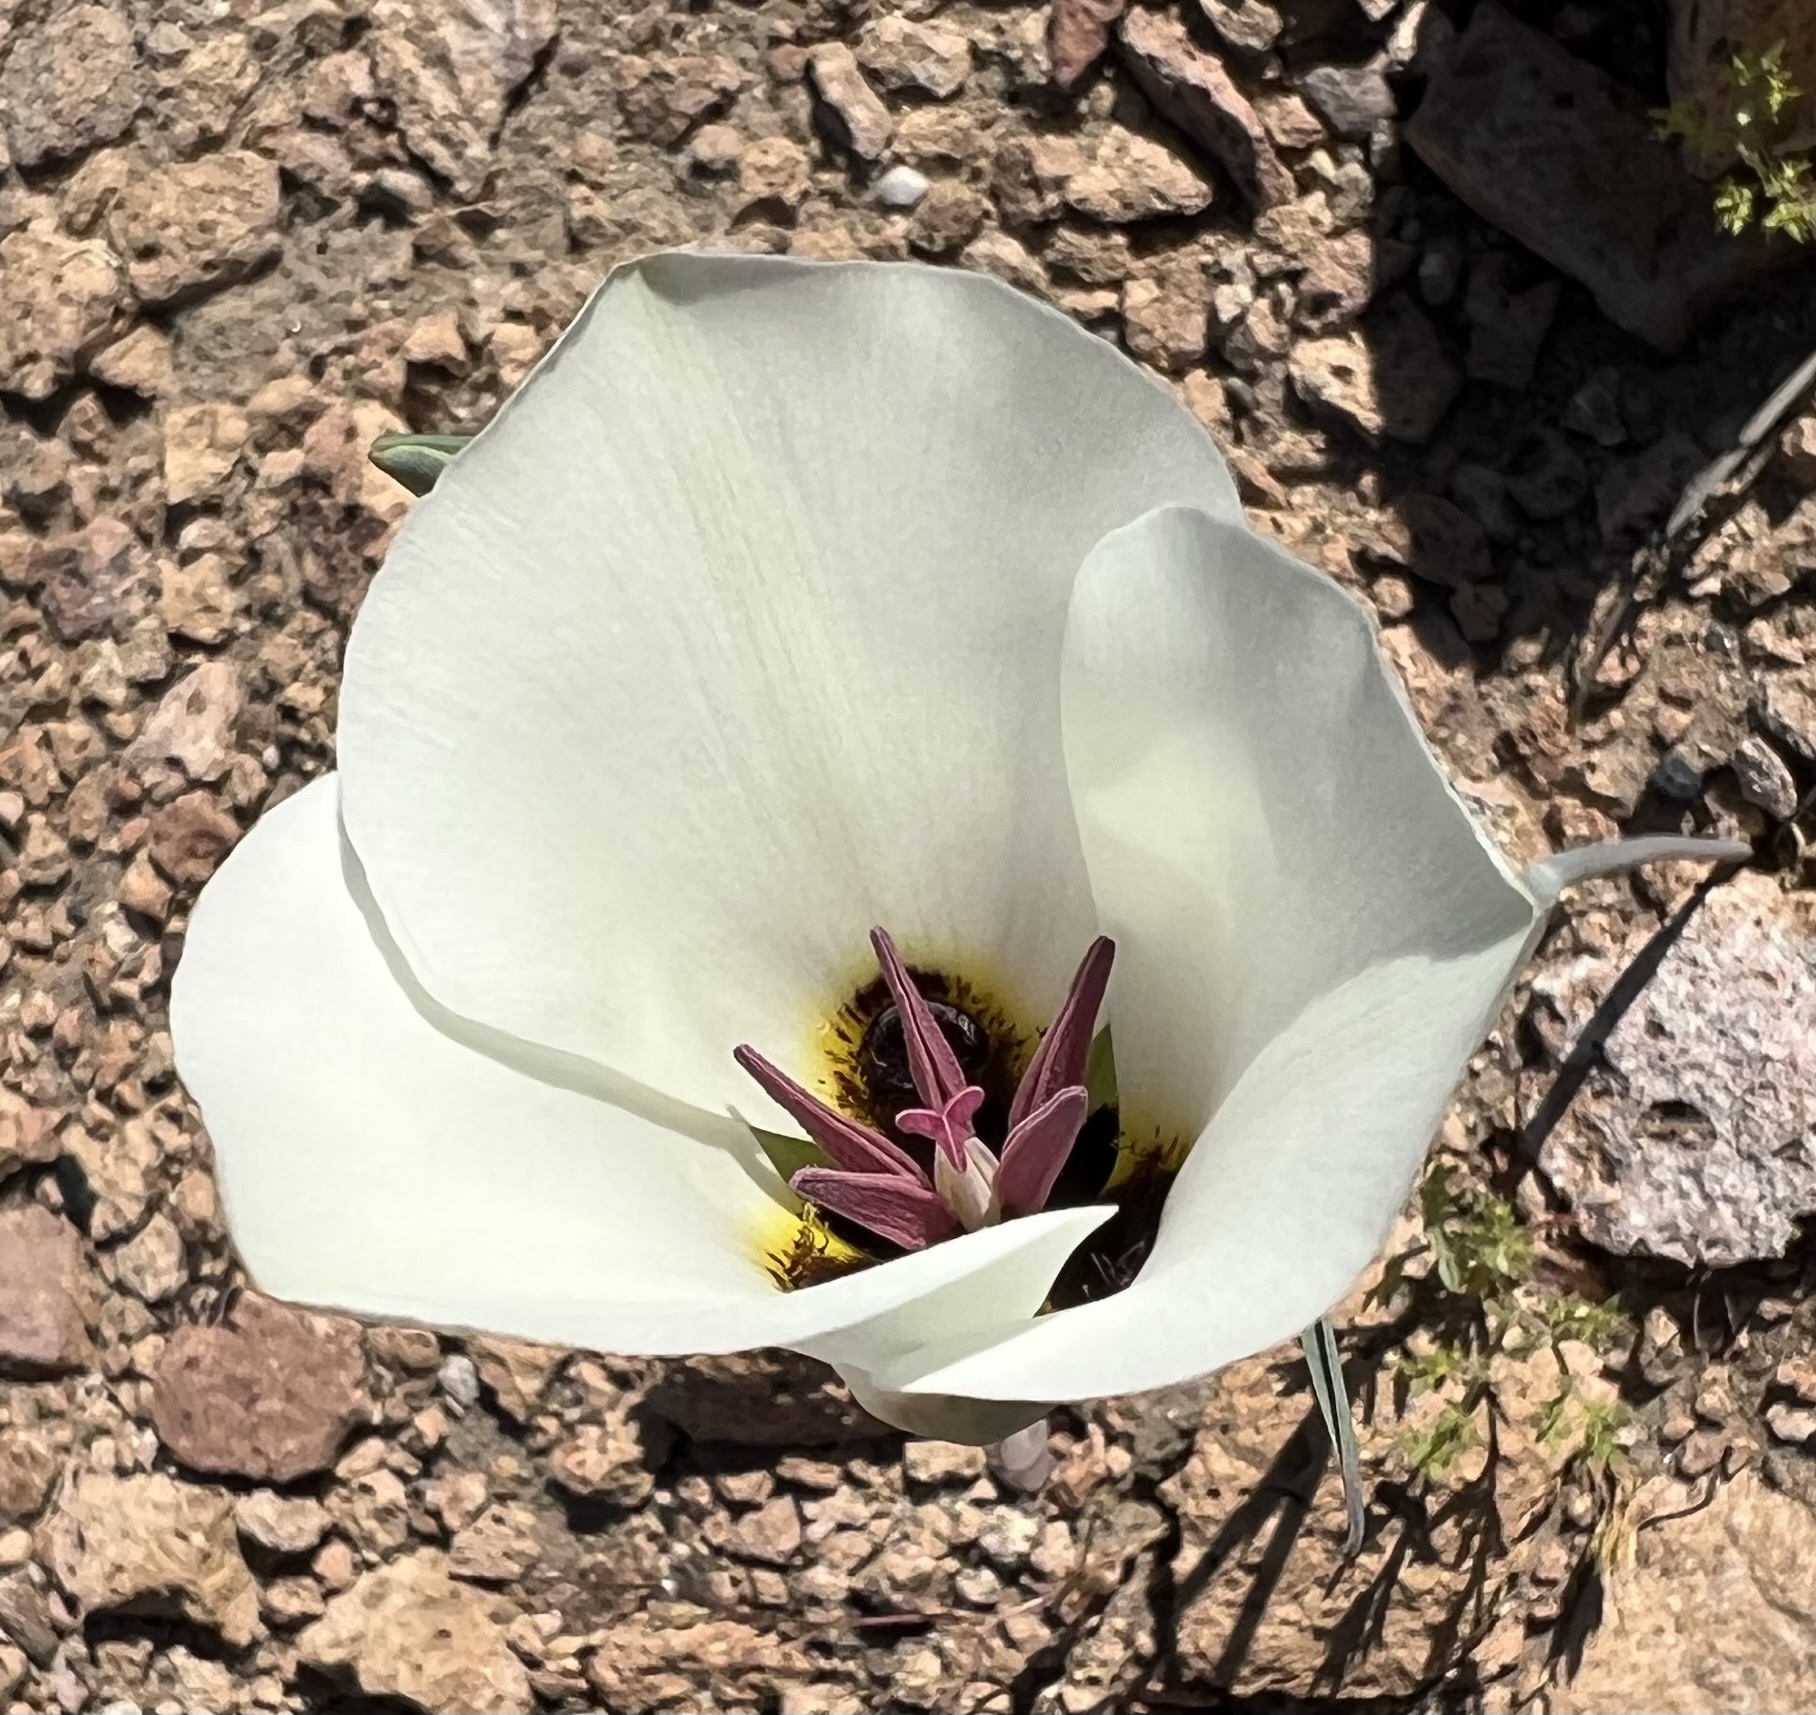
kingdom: Plantae
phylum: Tracheophyta
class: Liliopsida
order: Liliales
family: Liliaceae
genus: Calochortus
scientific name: Calochortus bruneaunis
